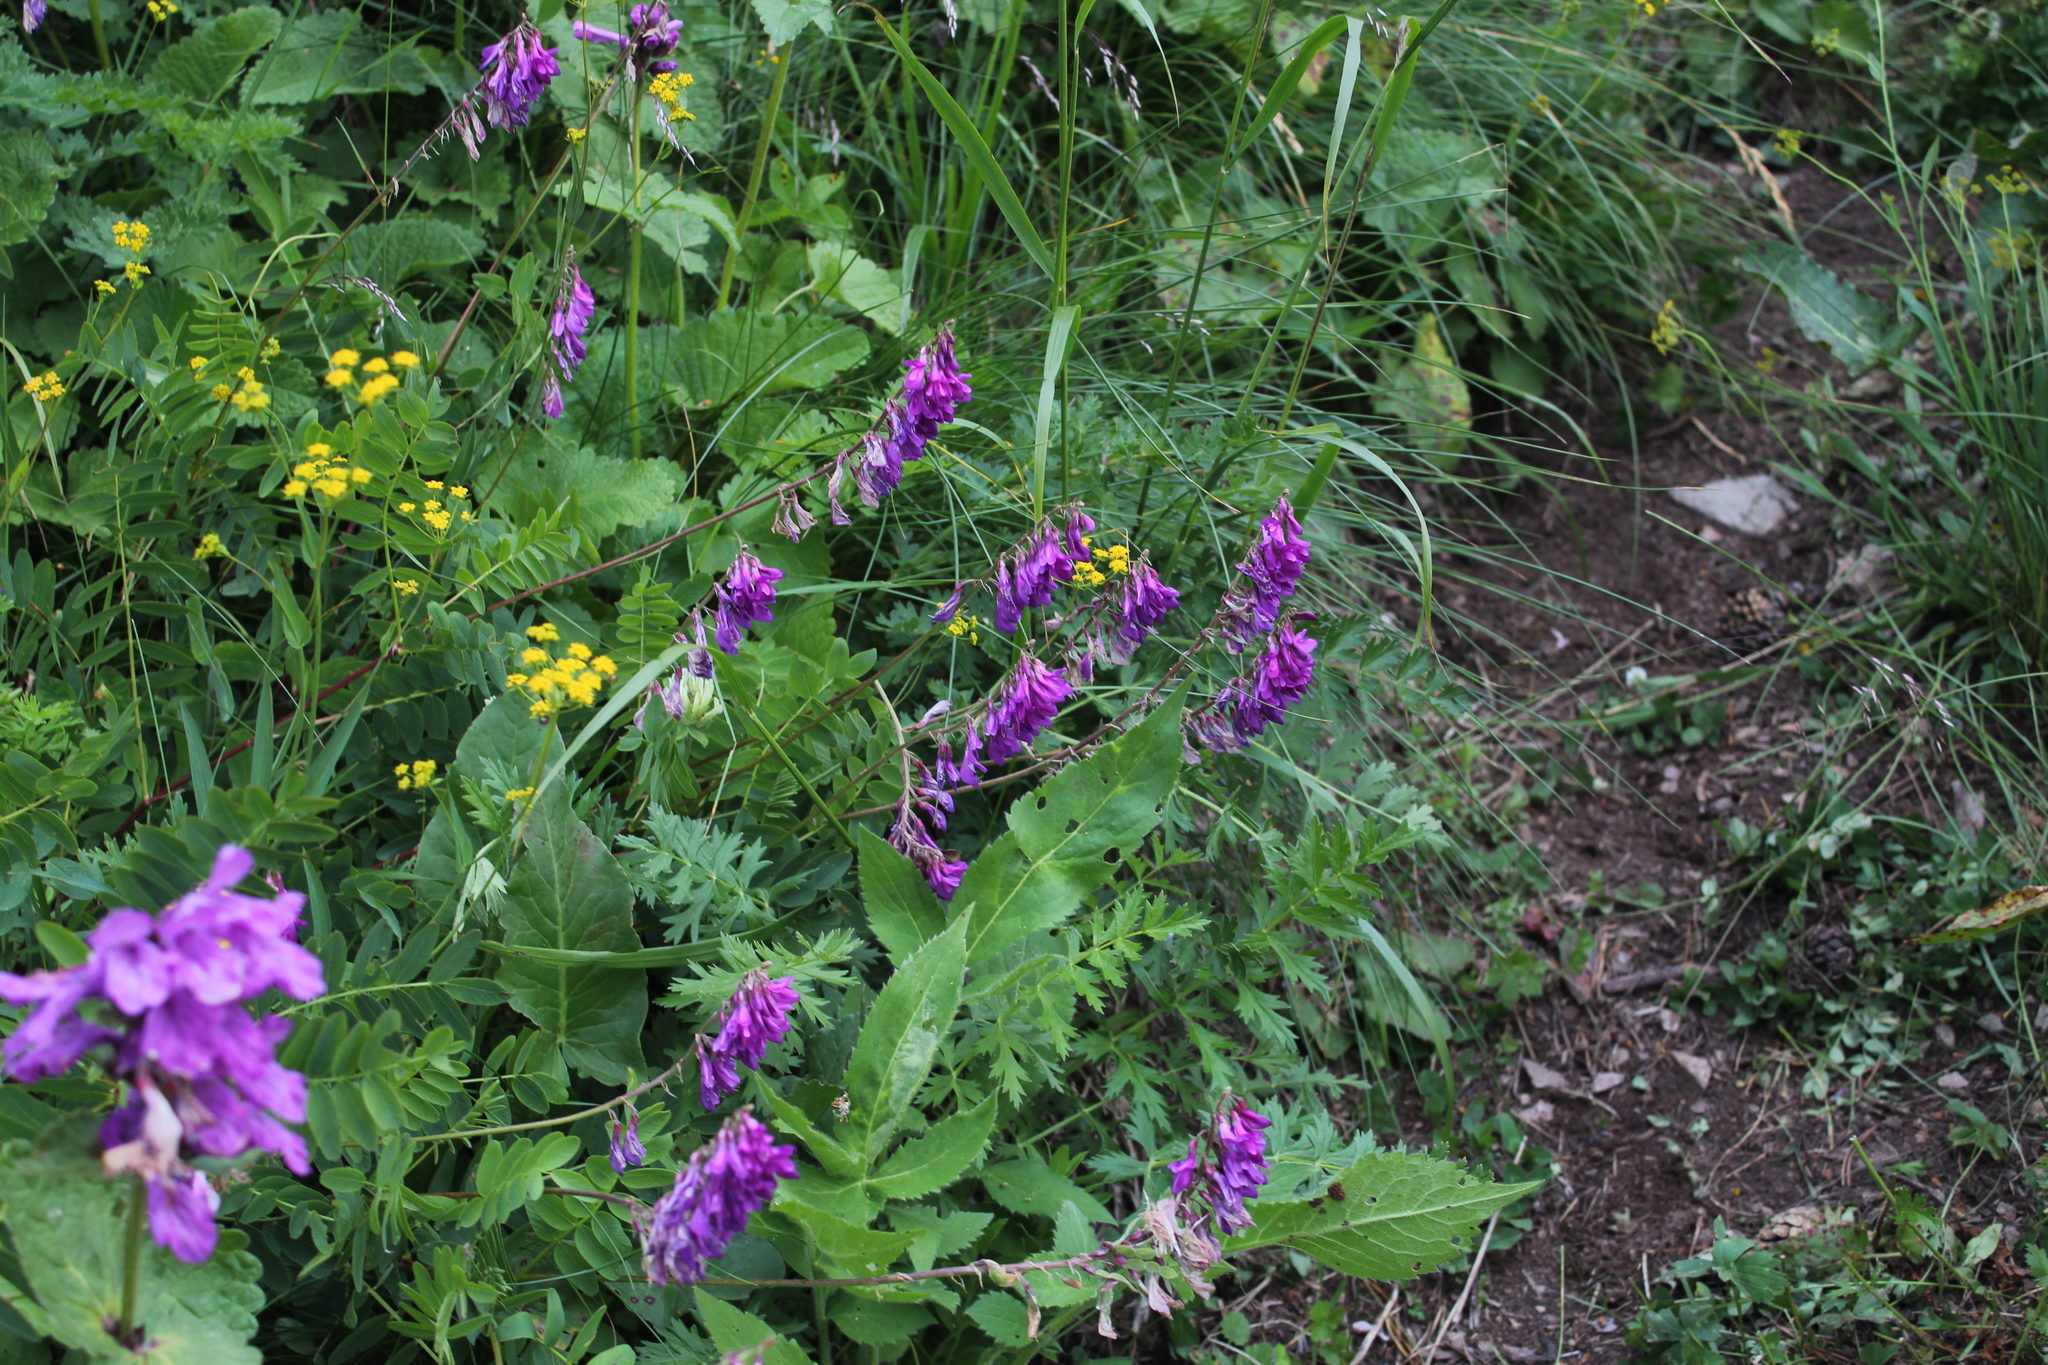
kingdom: Plantae
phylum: Tracheophyta
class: Magnoliopsida
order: Fabales
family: Fabaceae
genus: Hedysarum
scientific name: Hedysarum caucasicum
